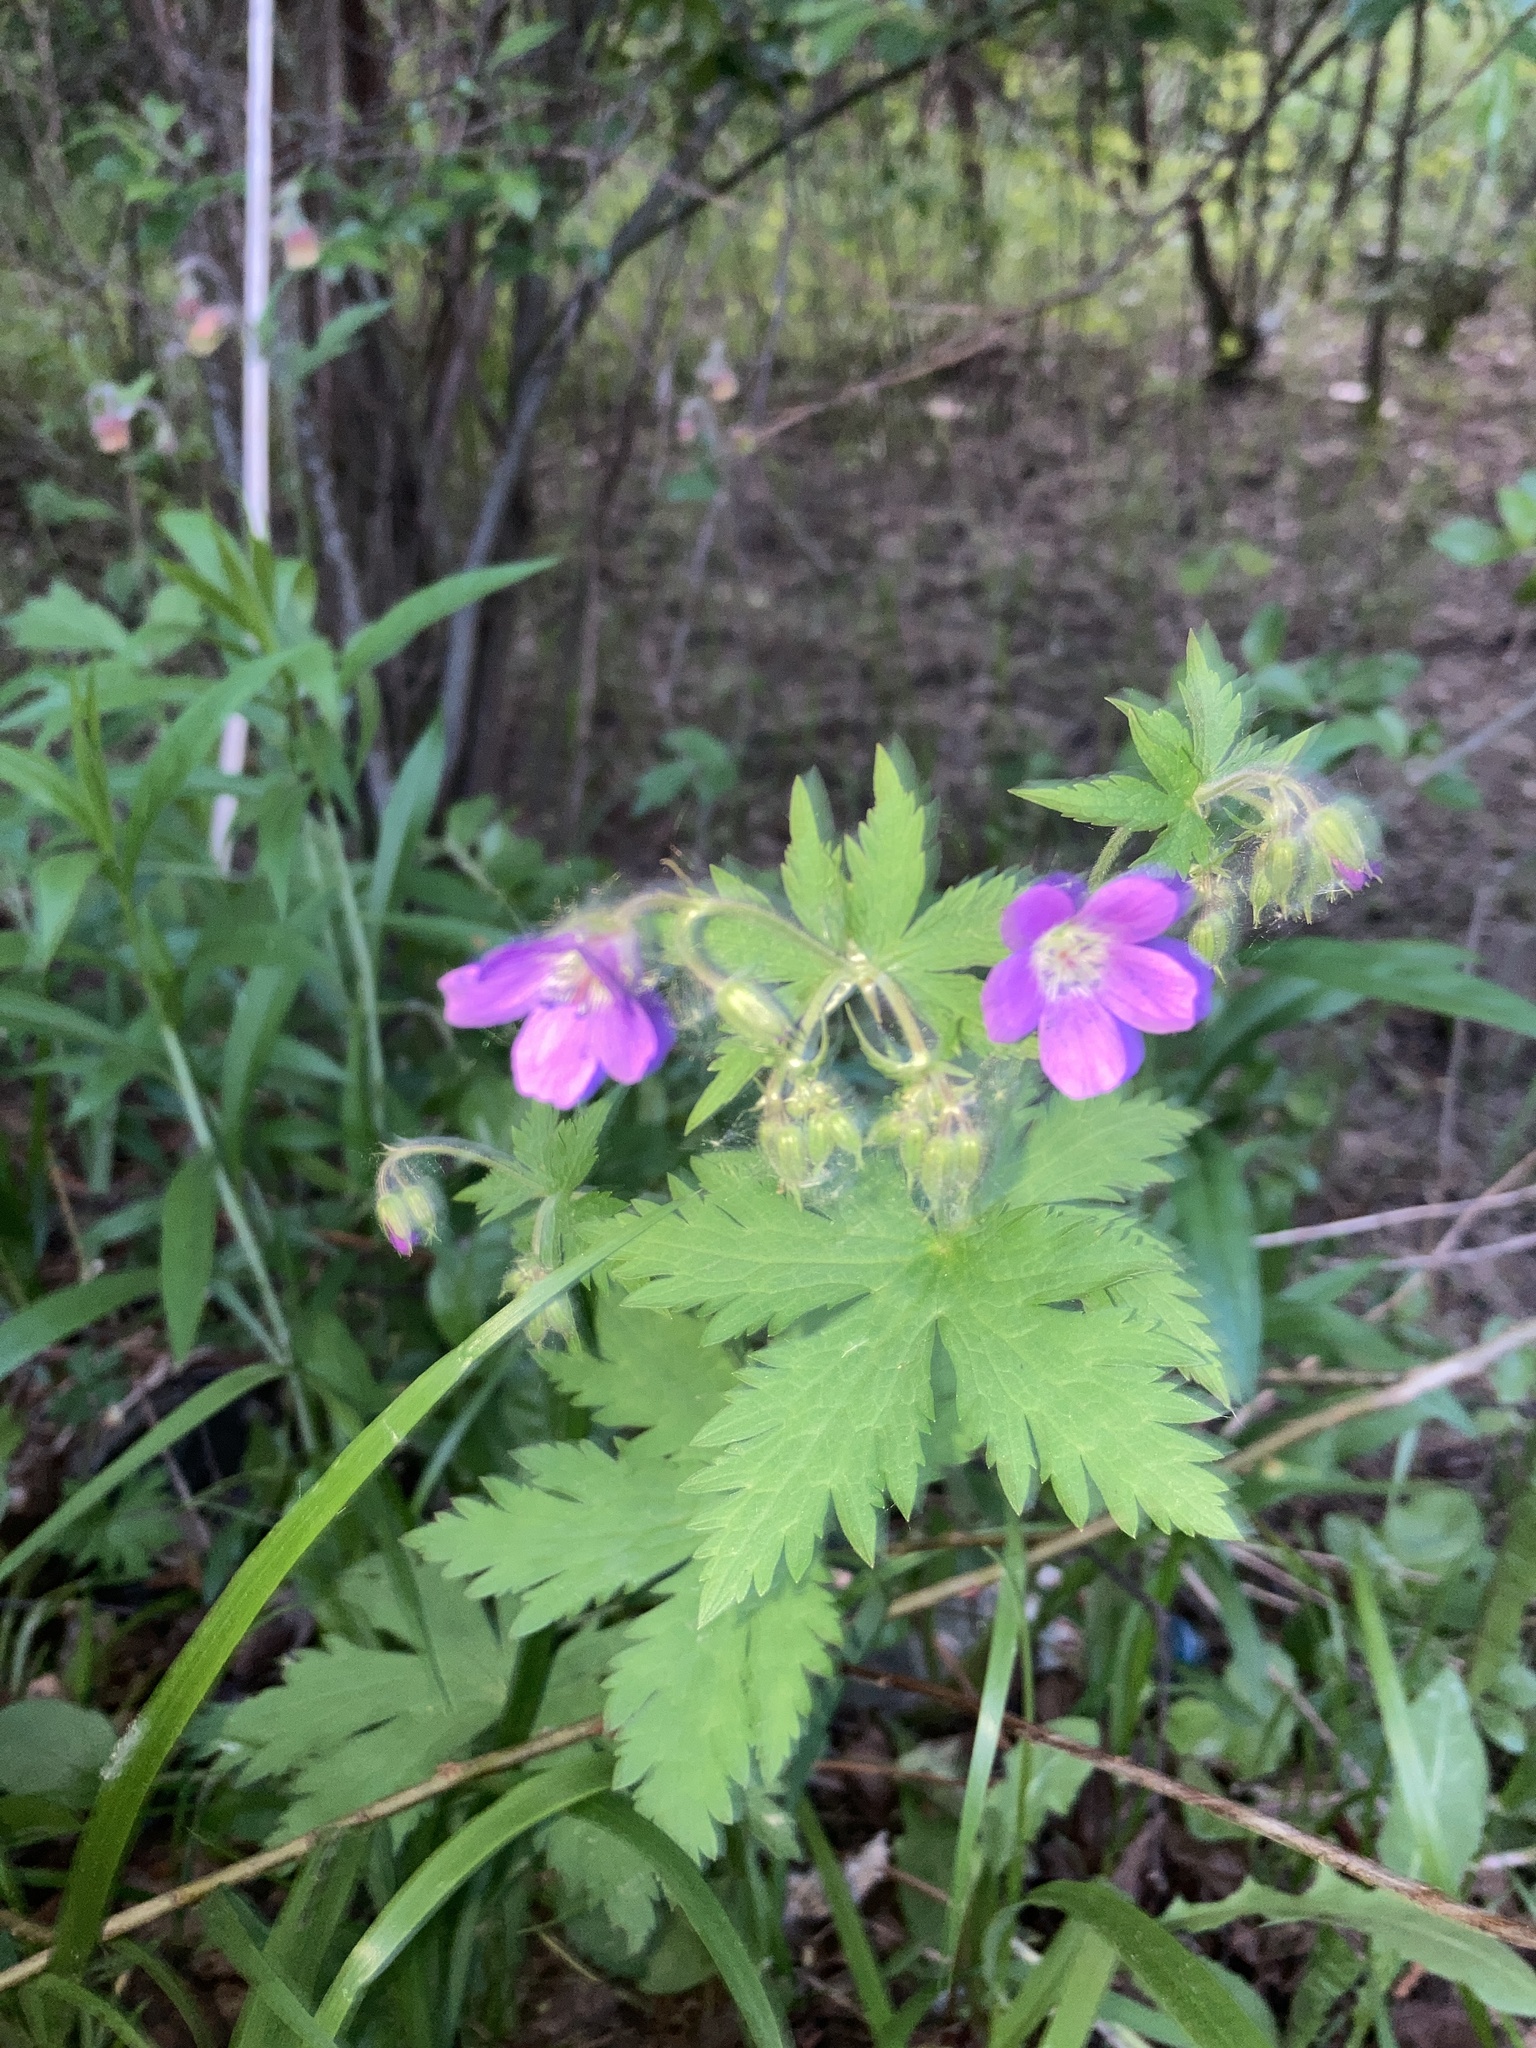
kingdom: Plantae
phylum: Tracheophyta
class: Magnoliopsida
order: Geraniales
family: Geraniaceae
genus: Geranium
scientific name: Geranium sylvaticum
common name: Wood crane's-bill
